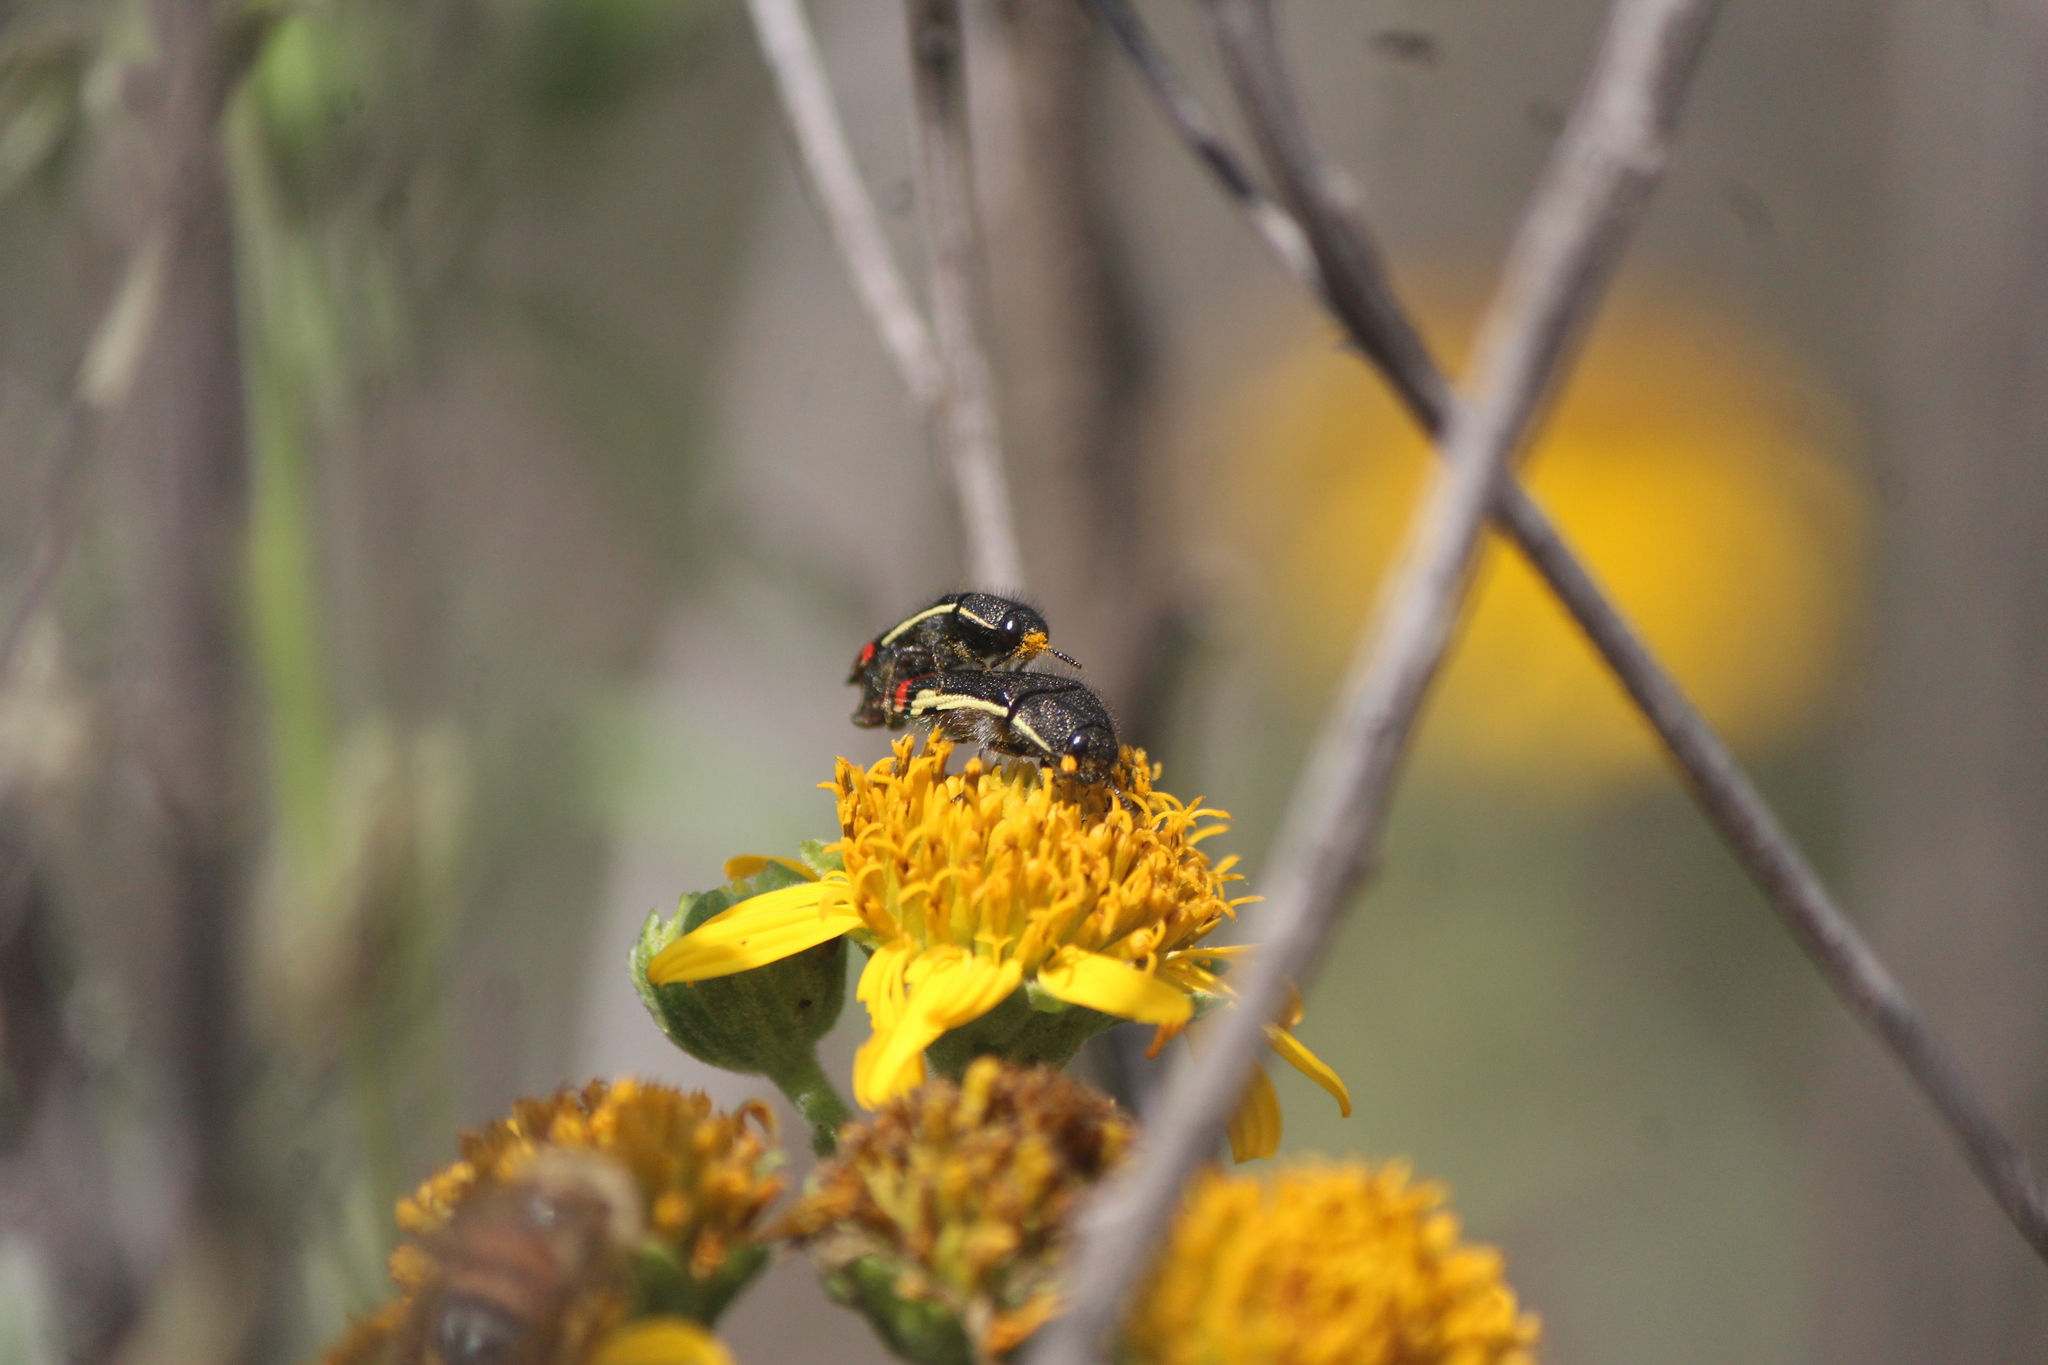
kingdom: Animalia
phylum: Arthropoda
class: Insecta
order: Coleoptera
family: Buprestidae
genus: Acmaeodera
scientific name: Acmaeodera flavomarginata
